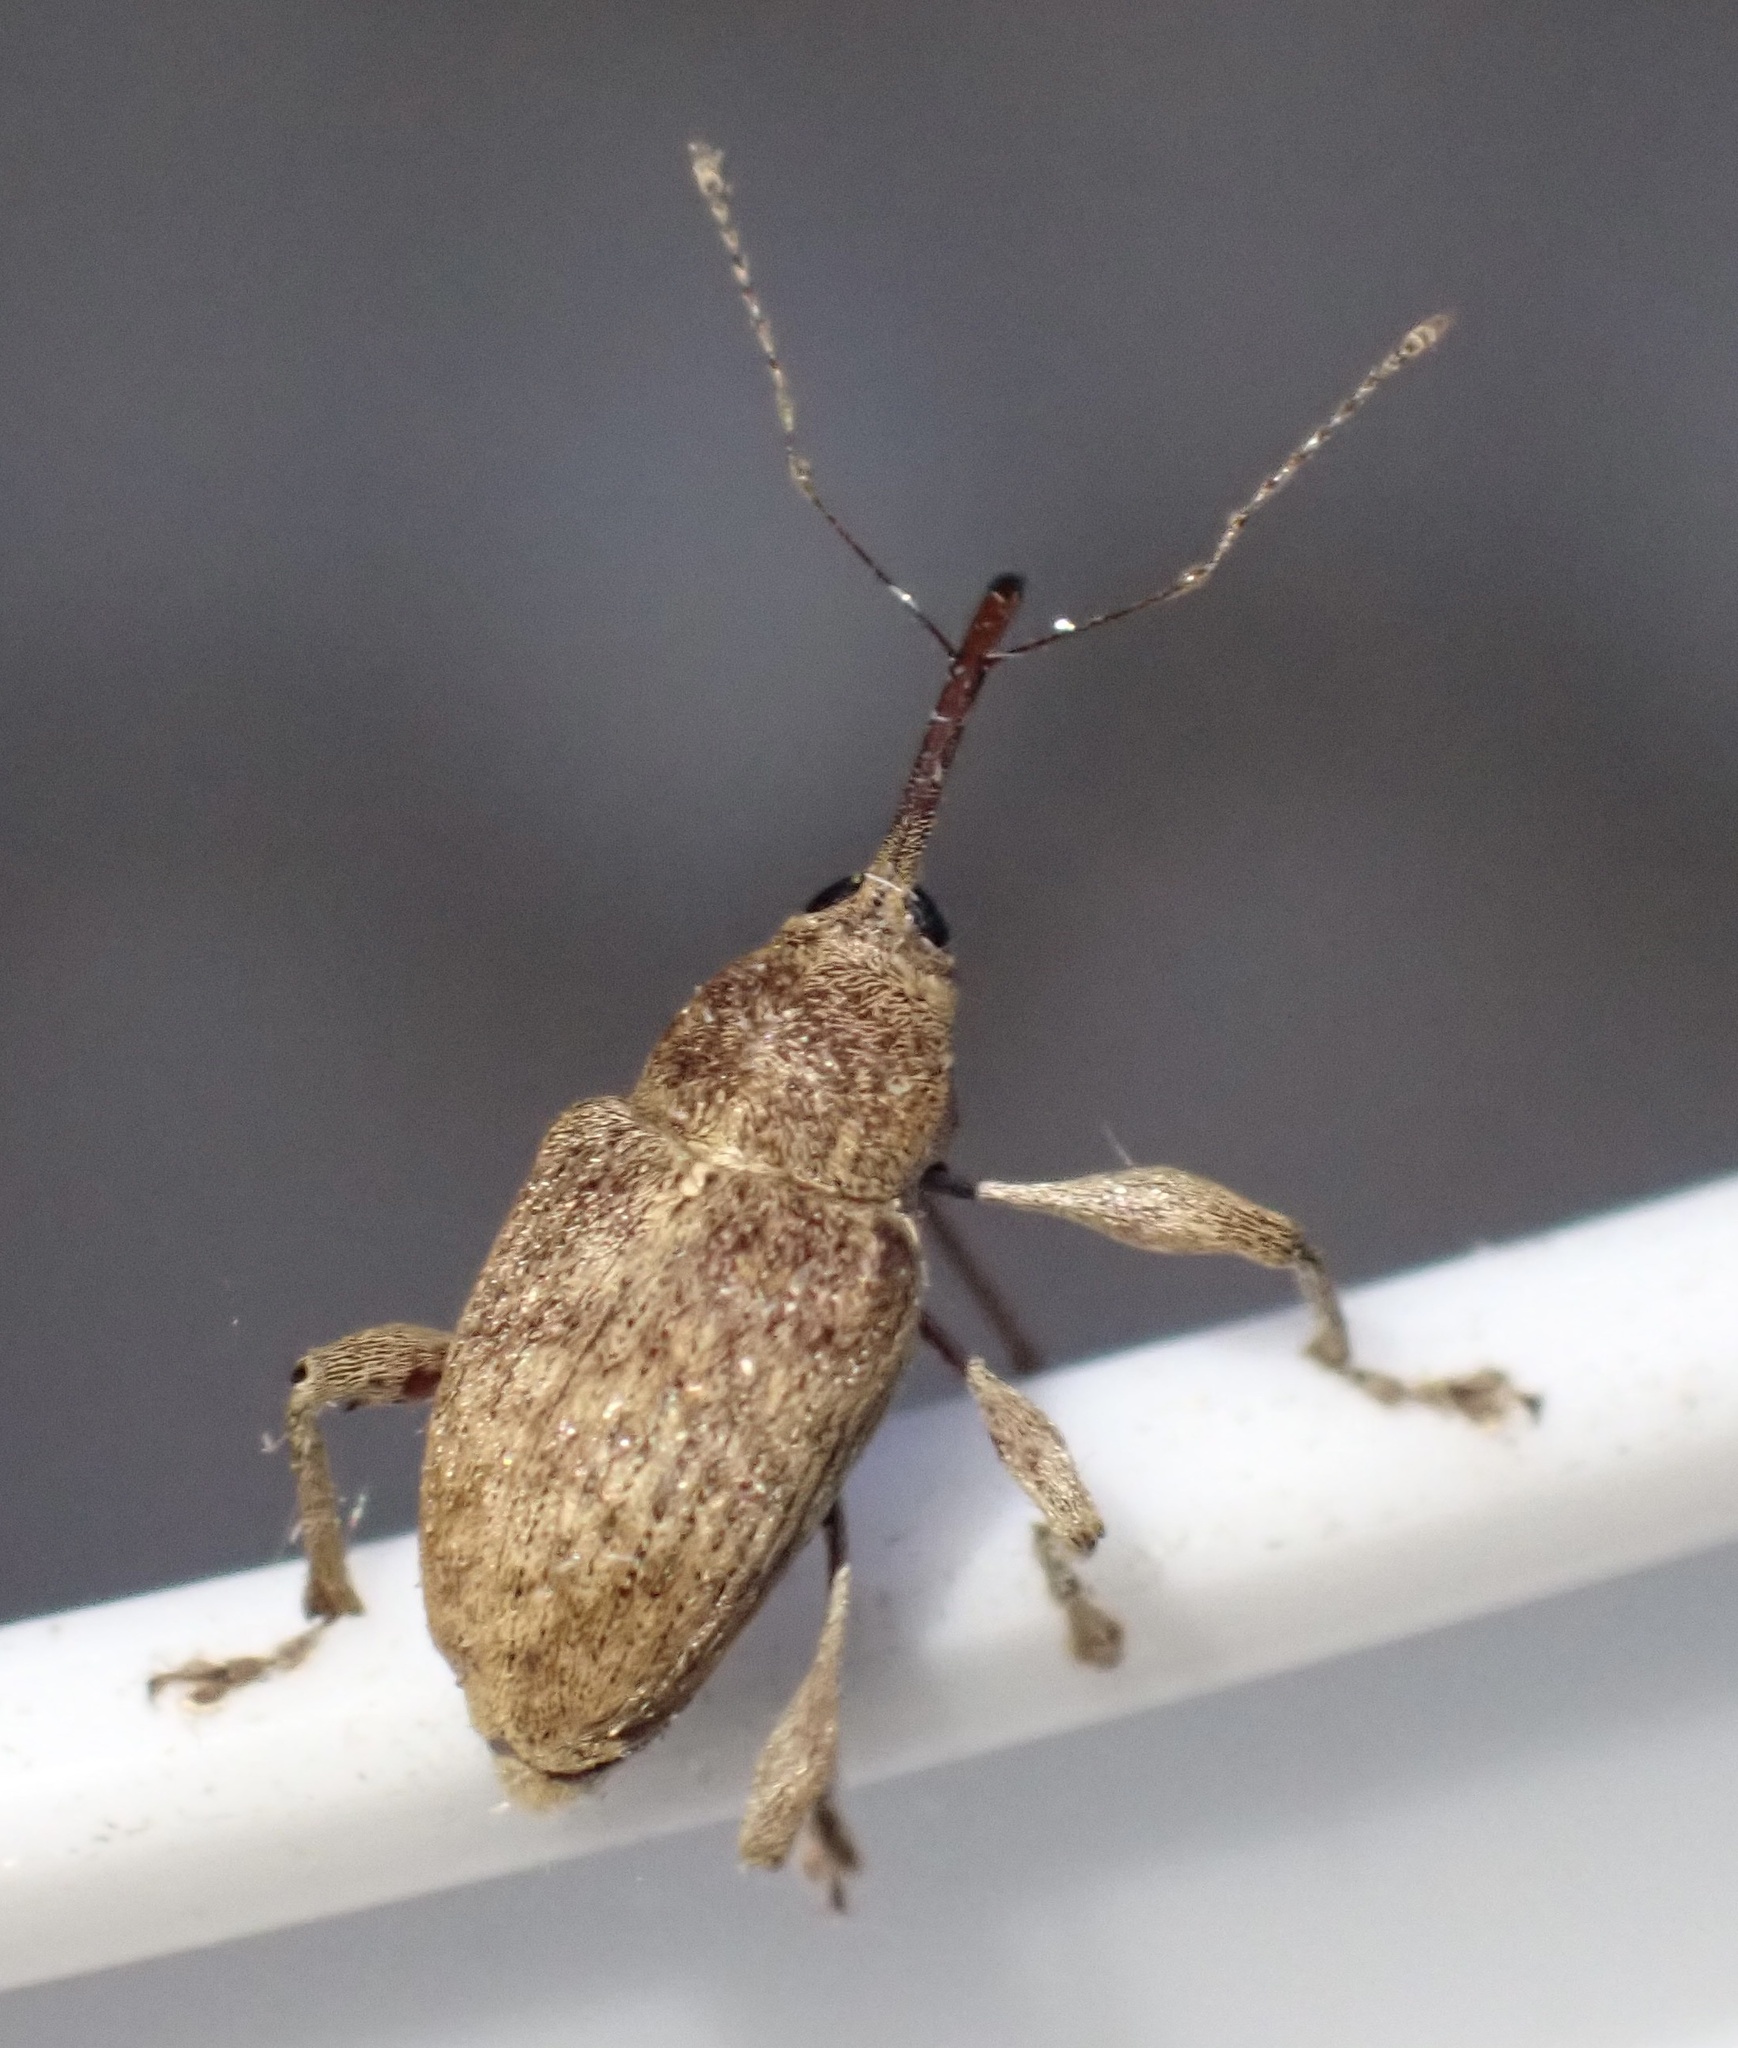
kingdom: Animalia
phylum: Arthropoda
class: Insecta
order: Coleoptera
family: Curculionidae
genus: Curculio
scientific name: Curculio elephas
